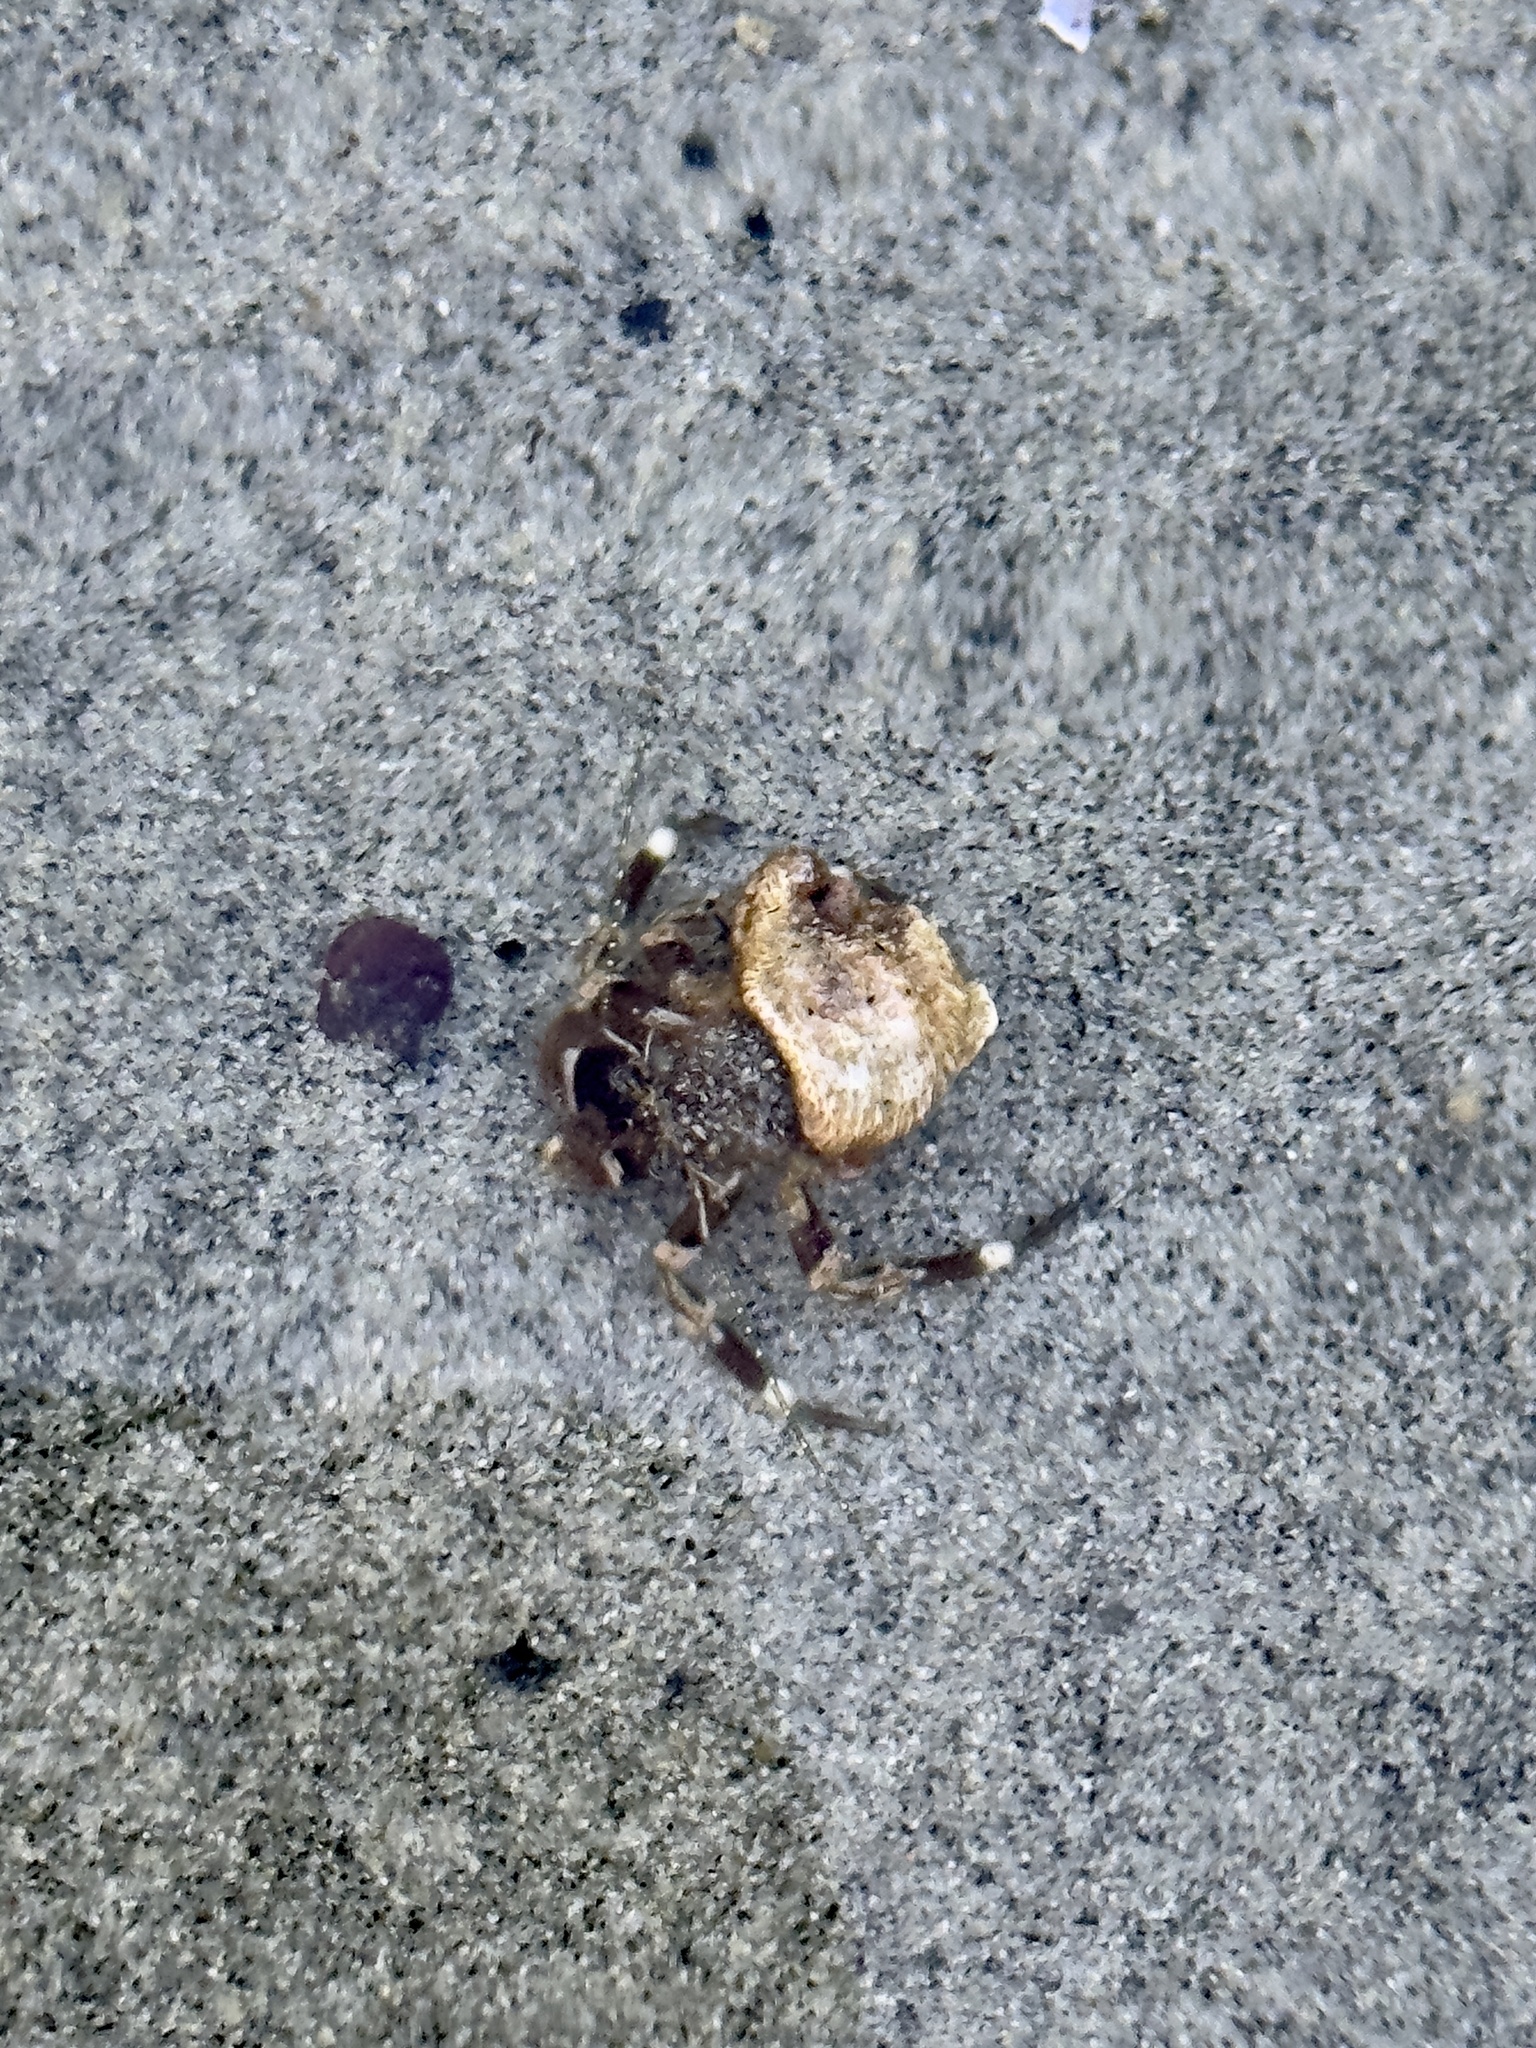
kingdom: Animalia
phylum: Arthropoda
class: Malacostraca
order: Decapoda
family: Paguridae
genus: Pagurus
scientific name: Pagurus hirsutiusculus
